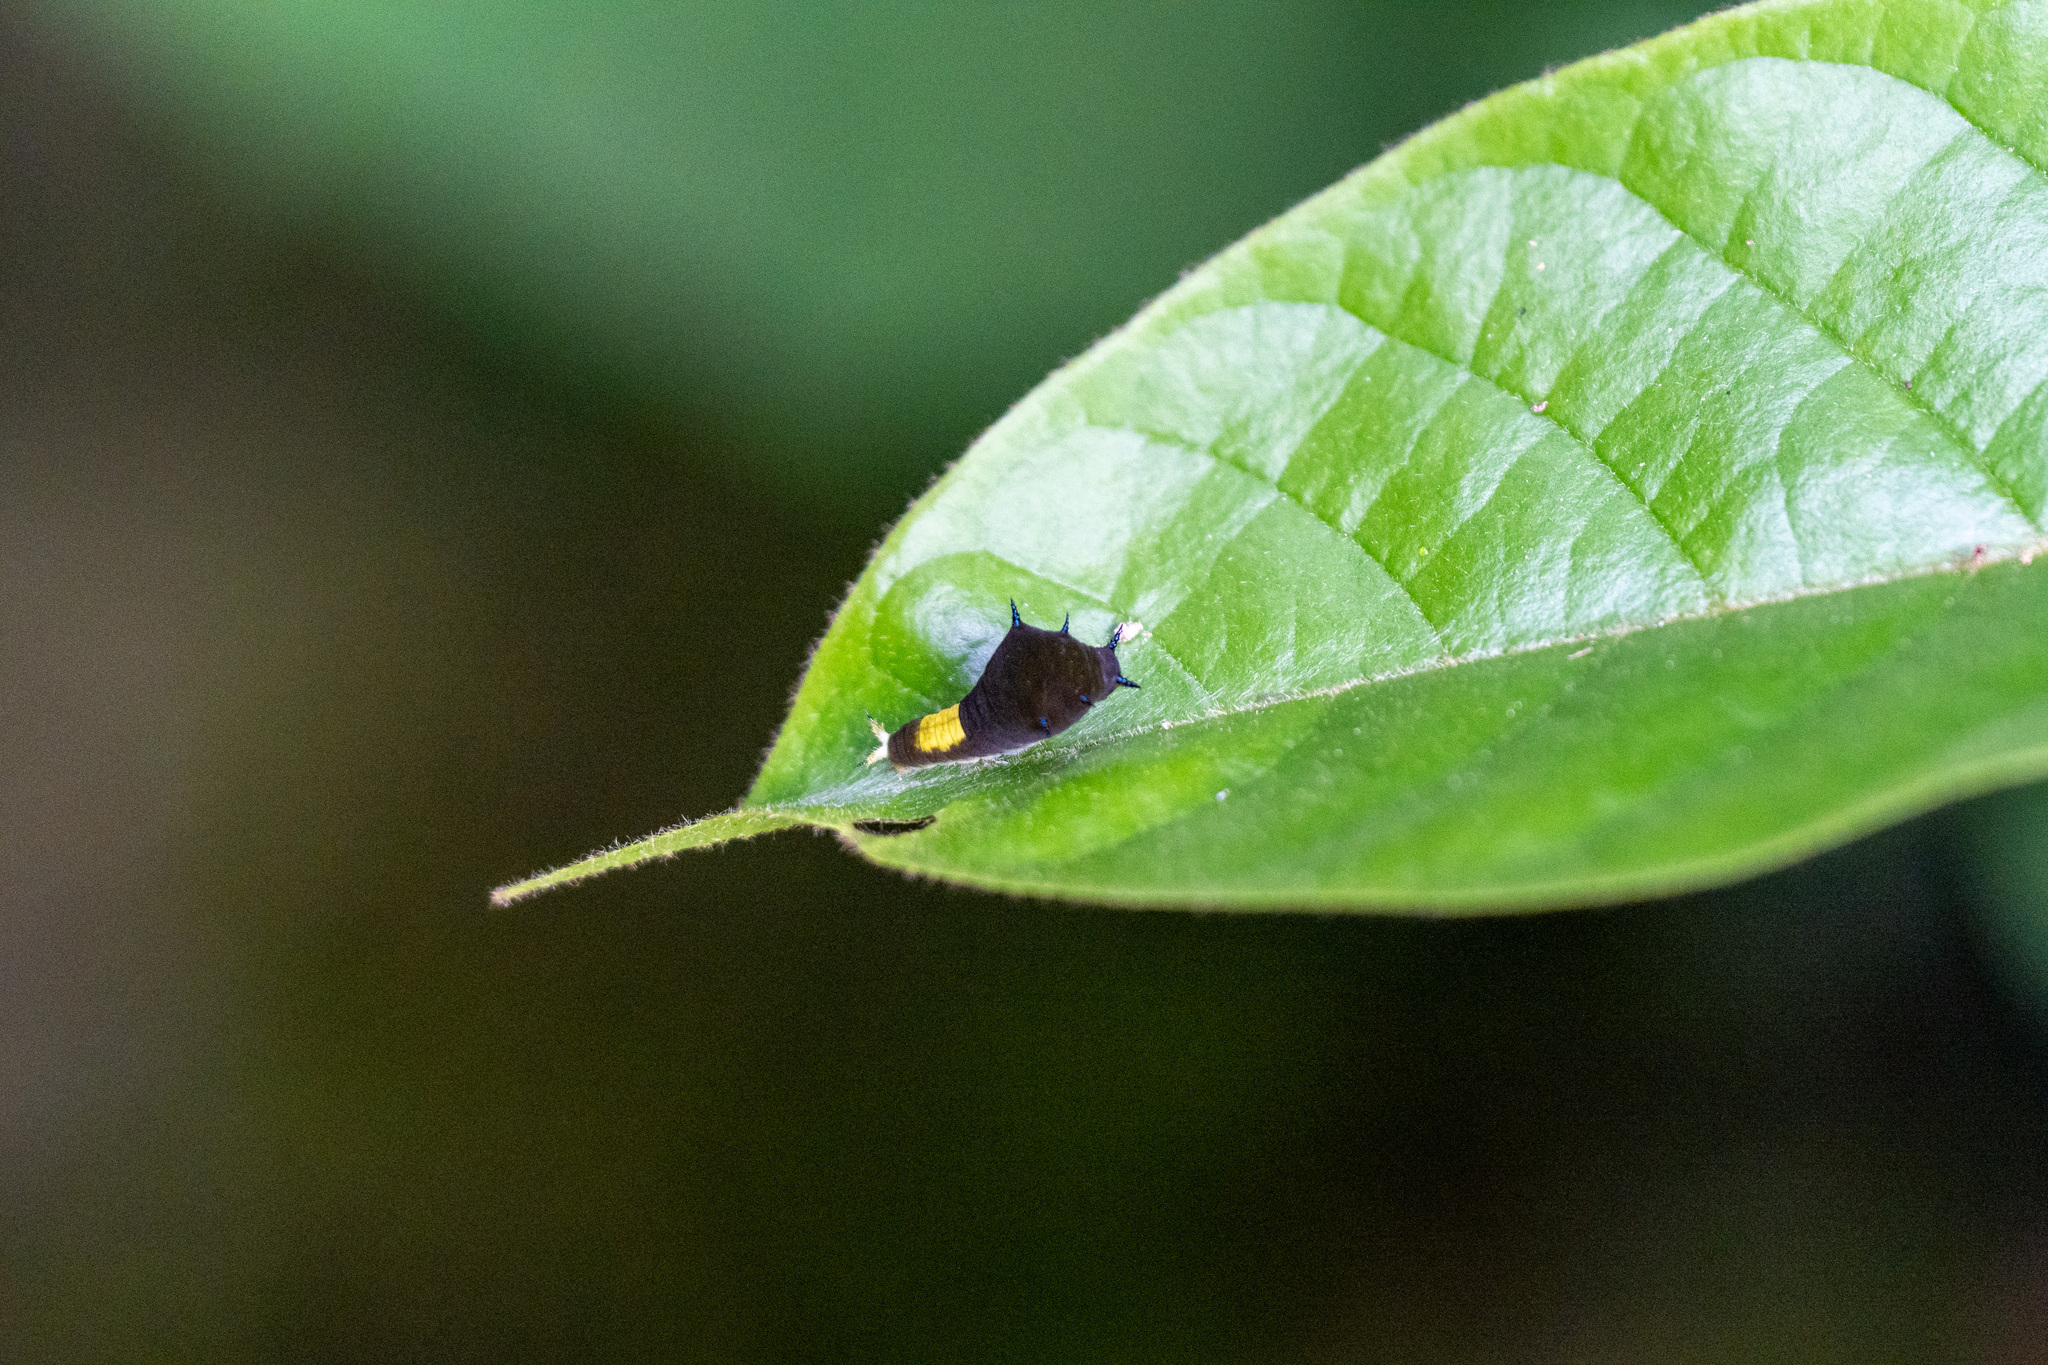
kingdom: Animalia
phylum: Arthropoda
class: Insecta
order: Lepidoptera
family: Papilionidae
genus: Graphium
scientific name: Graphium agamemnon
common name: Tailed jay
